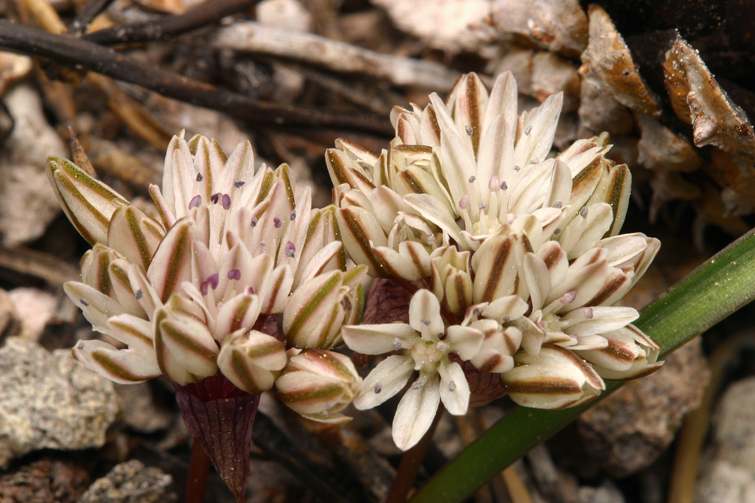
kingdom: Plantae
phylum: Tracheophyta
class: Liliopsida
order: Asparagales
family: Amaryllidaceae
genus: Allium
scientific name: Allium obtusum
